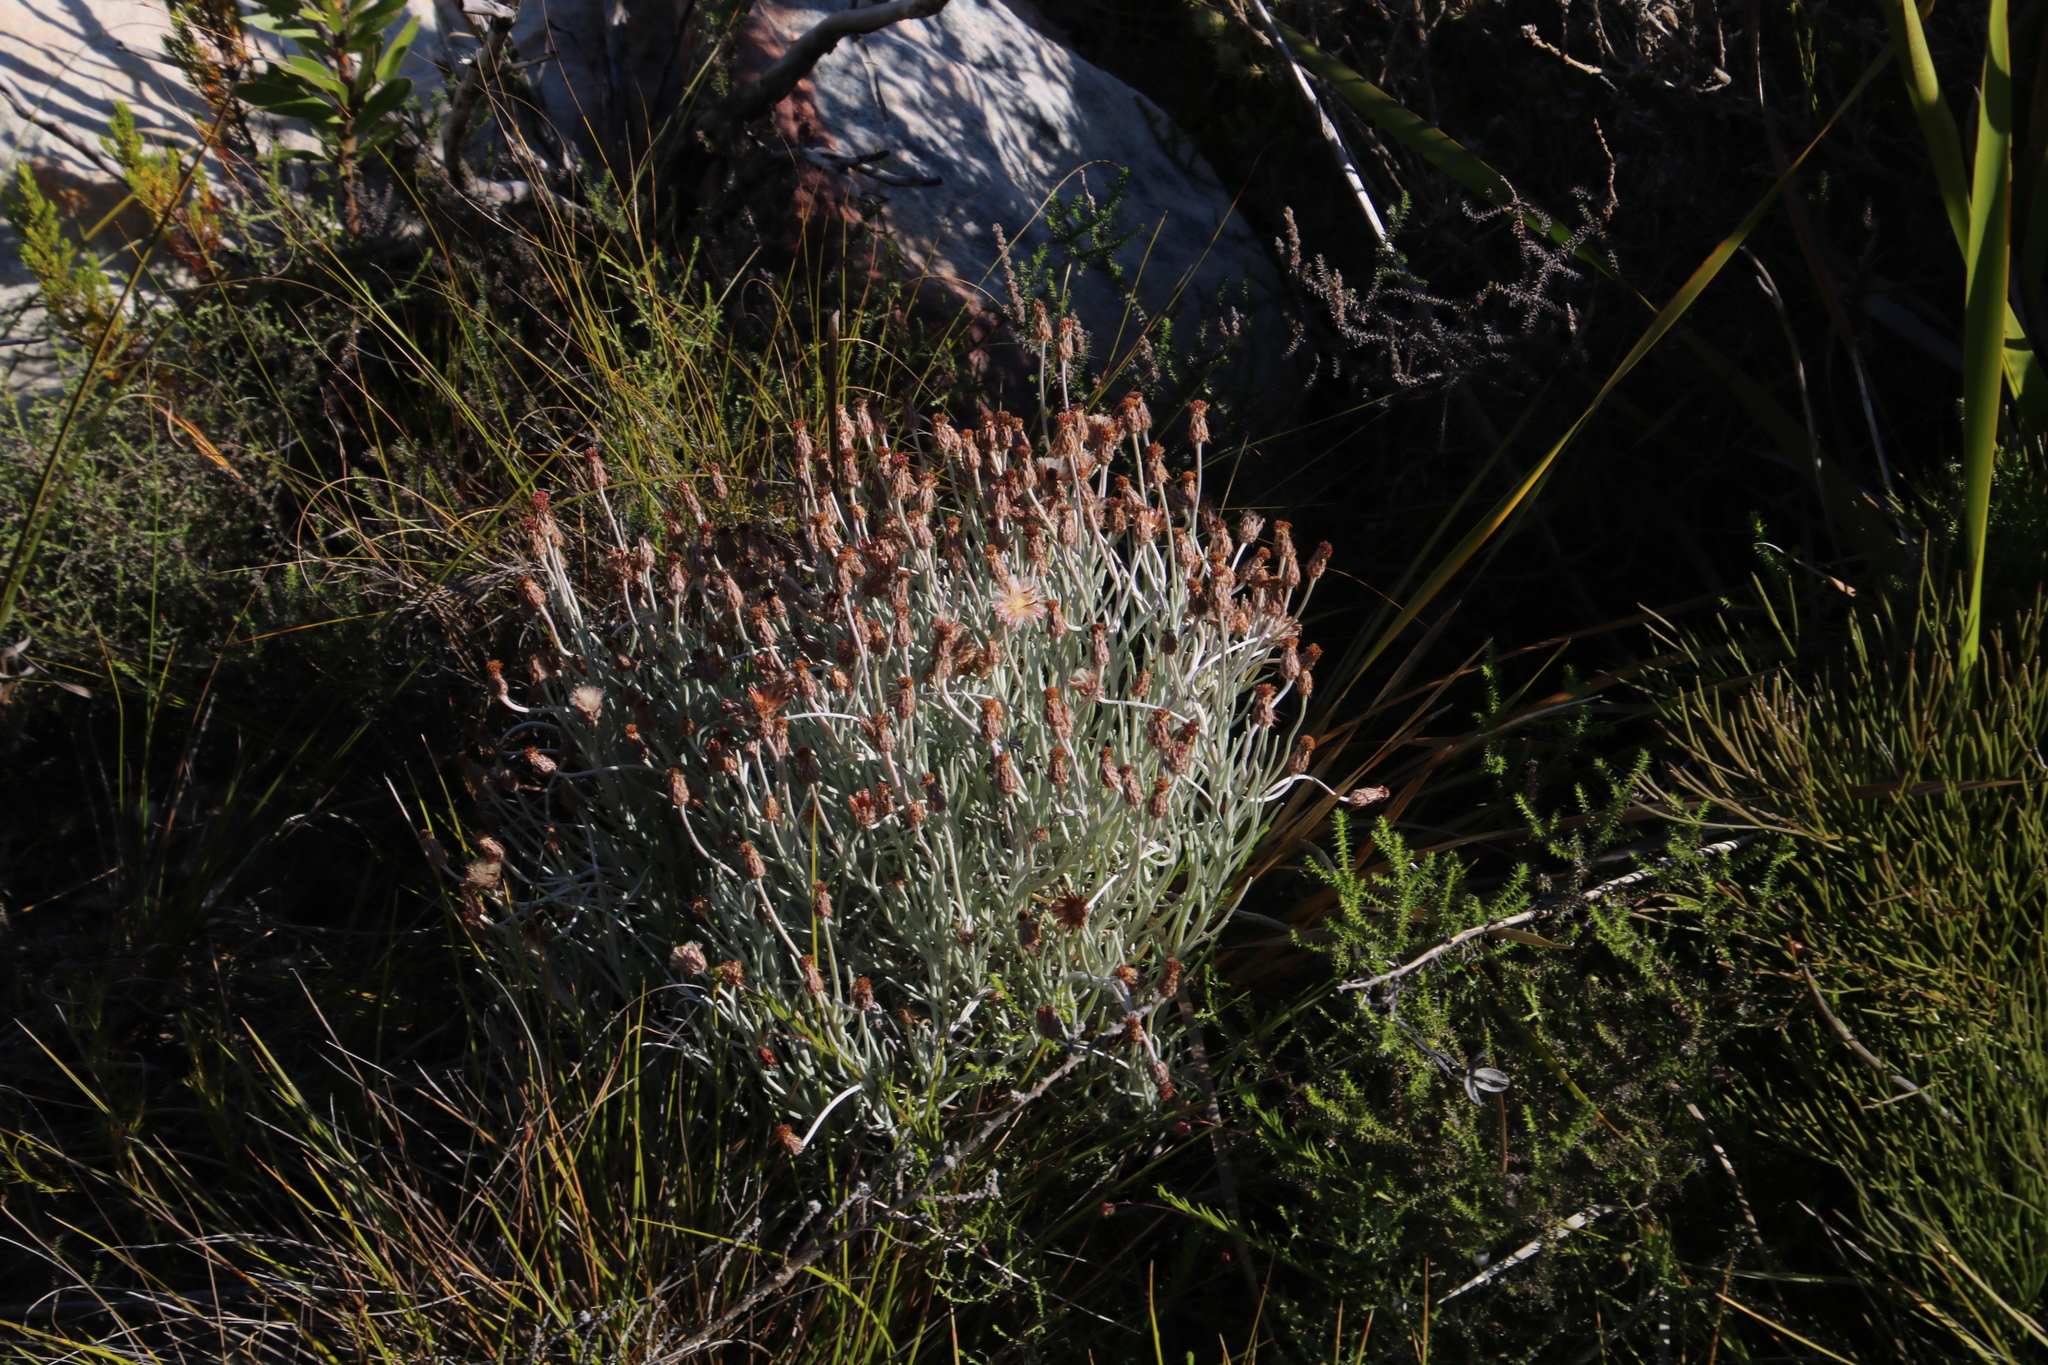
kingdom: Plantae
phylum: Tracheophyta
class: Magnoliopsida
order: Asterales
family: Asteraceae
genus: Syncarpha
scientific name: Syncarpha gnaphaloides
